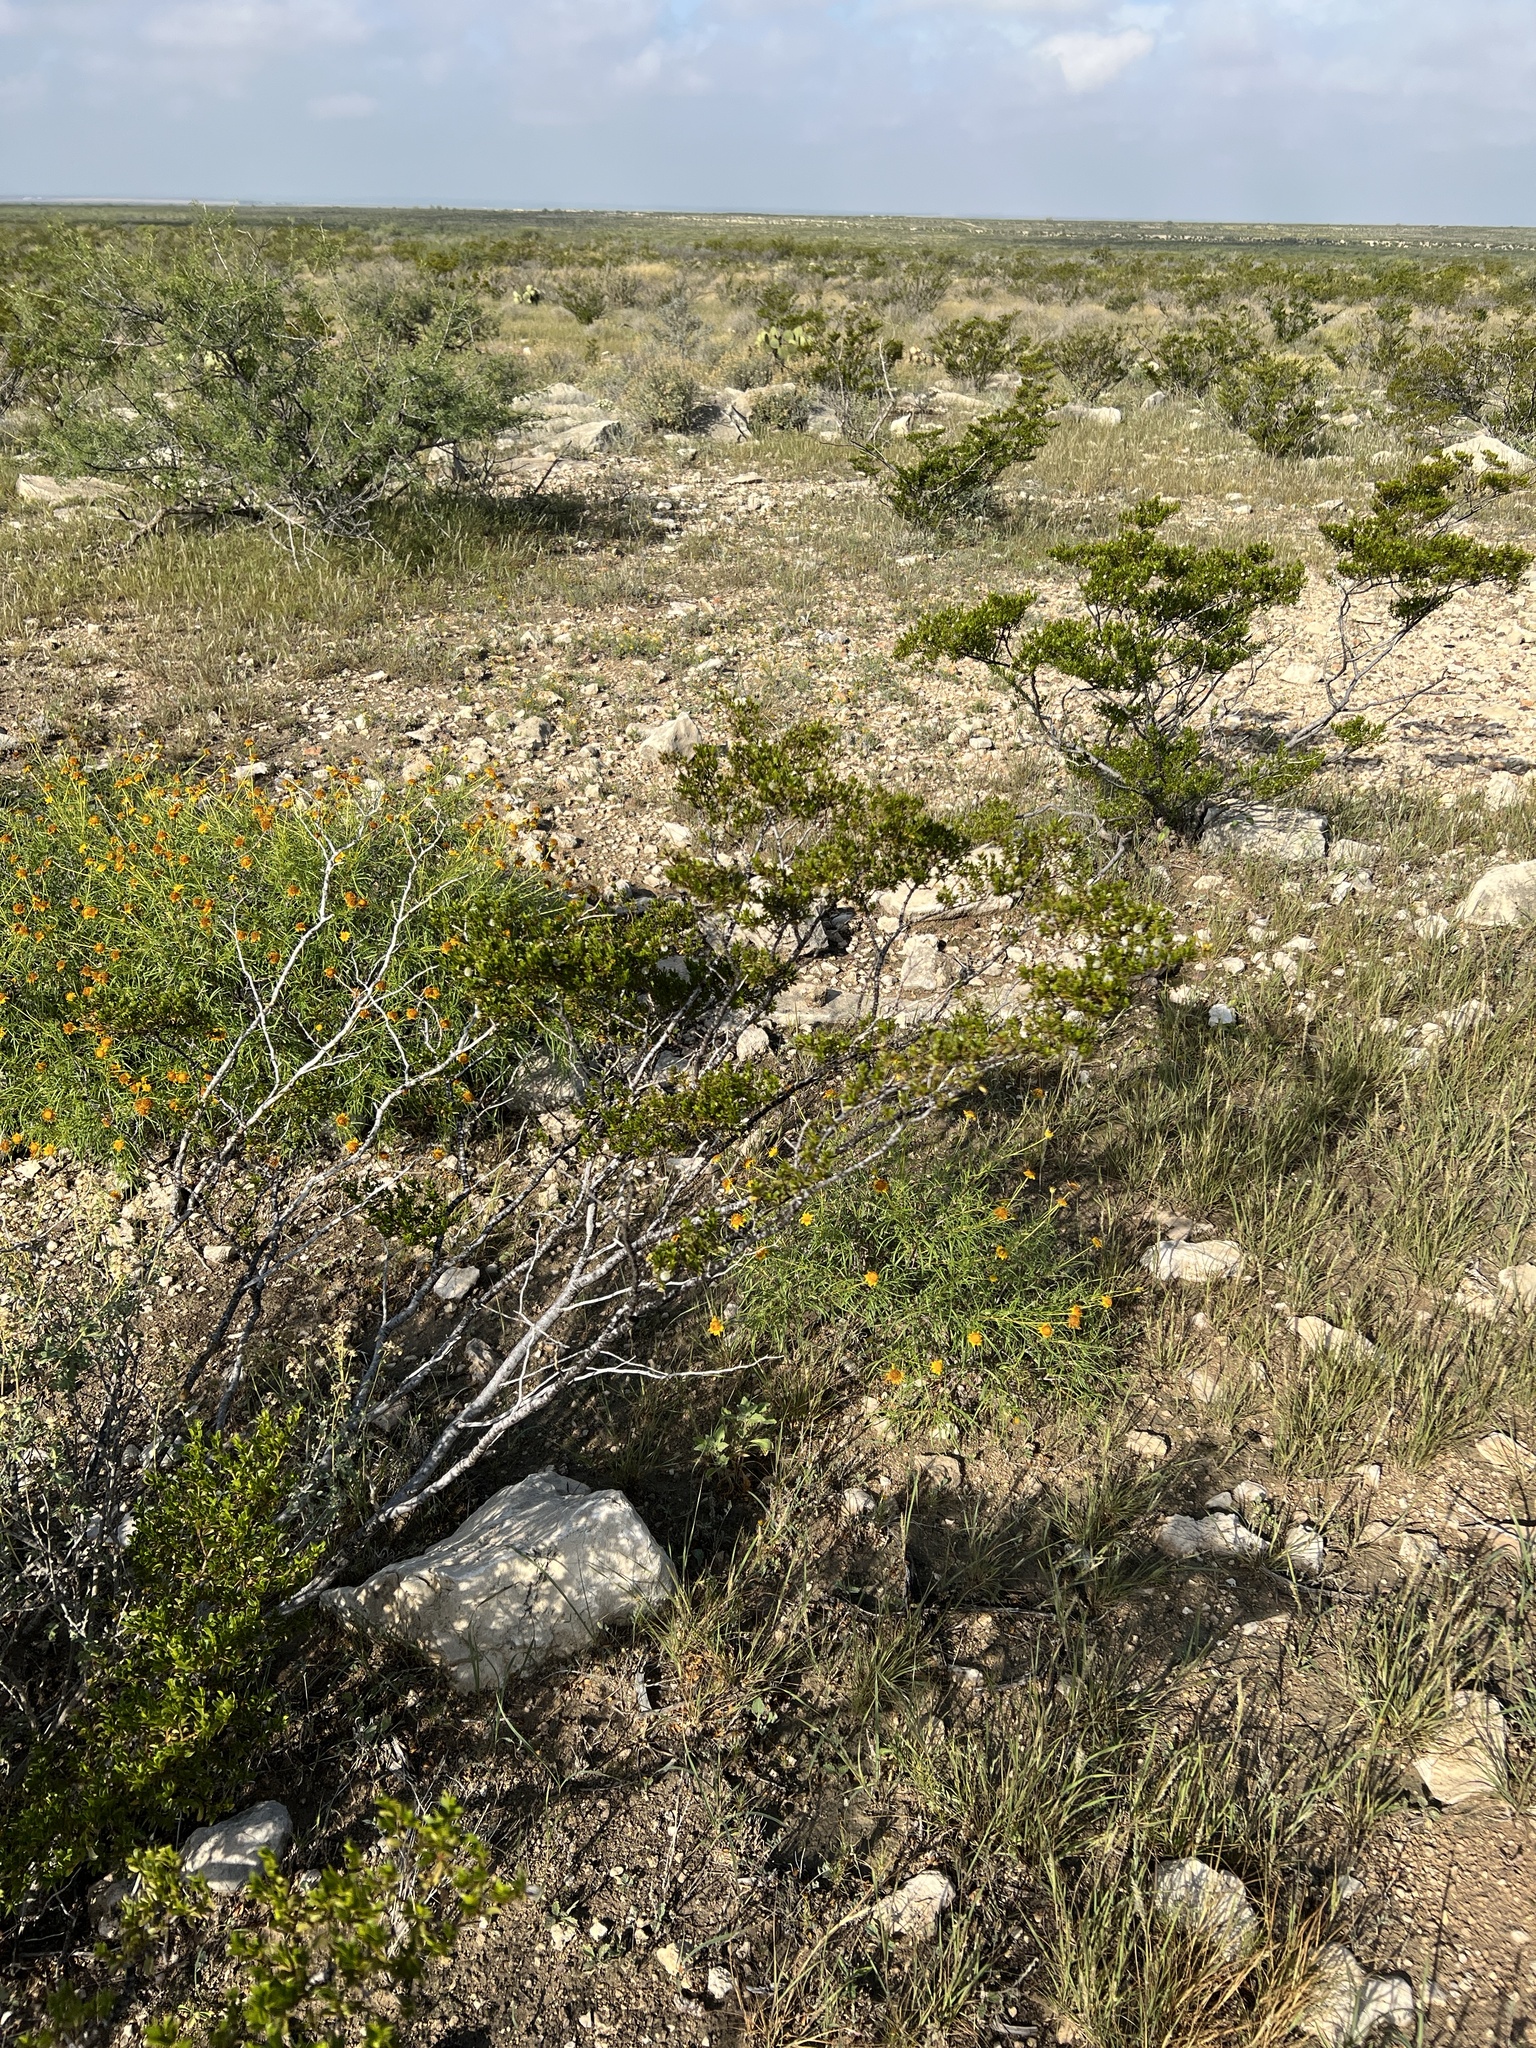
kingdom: Plantae
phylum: Tracheophyta
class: Magnoliopsida
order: Zygophyllales
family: Zygophyllaceae
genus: Larrea
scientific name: Larrea tridentata
